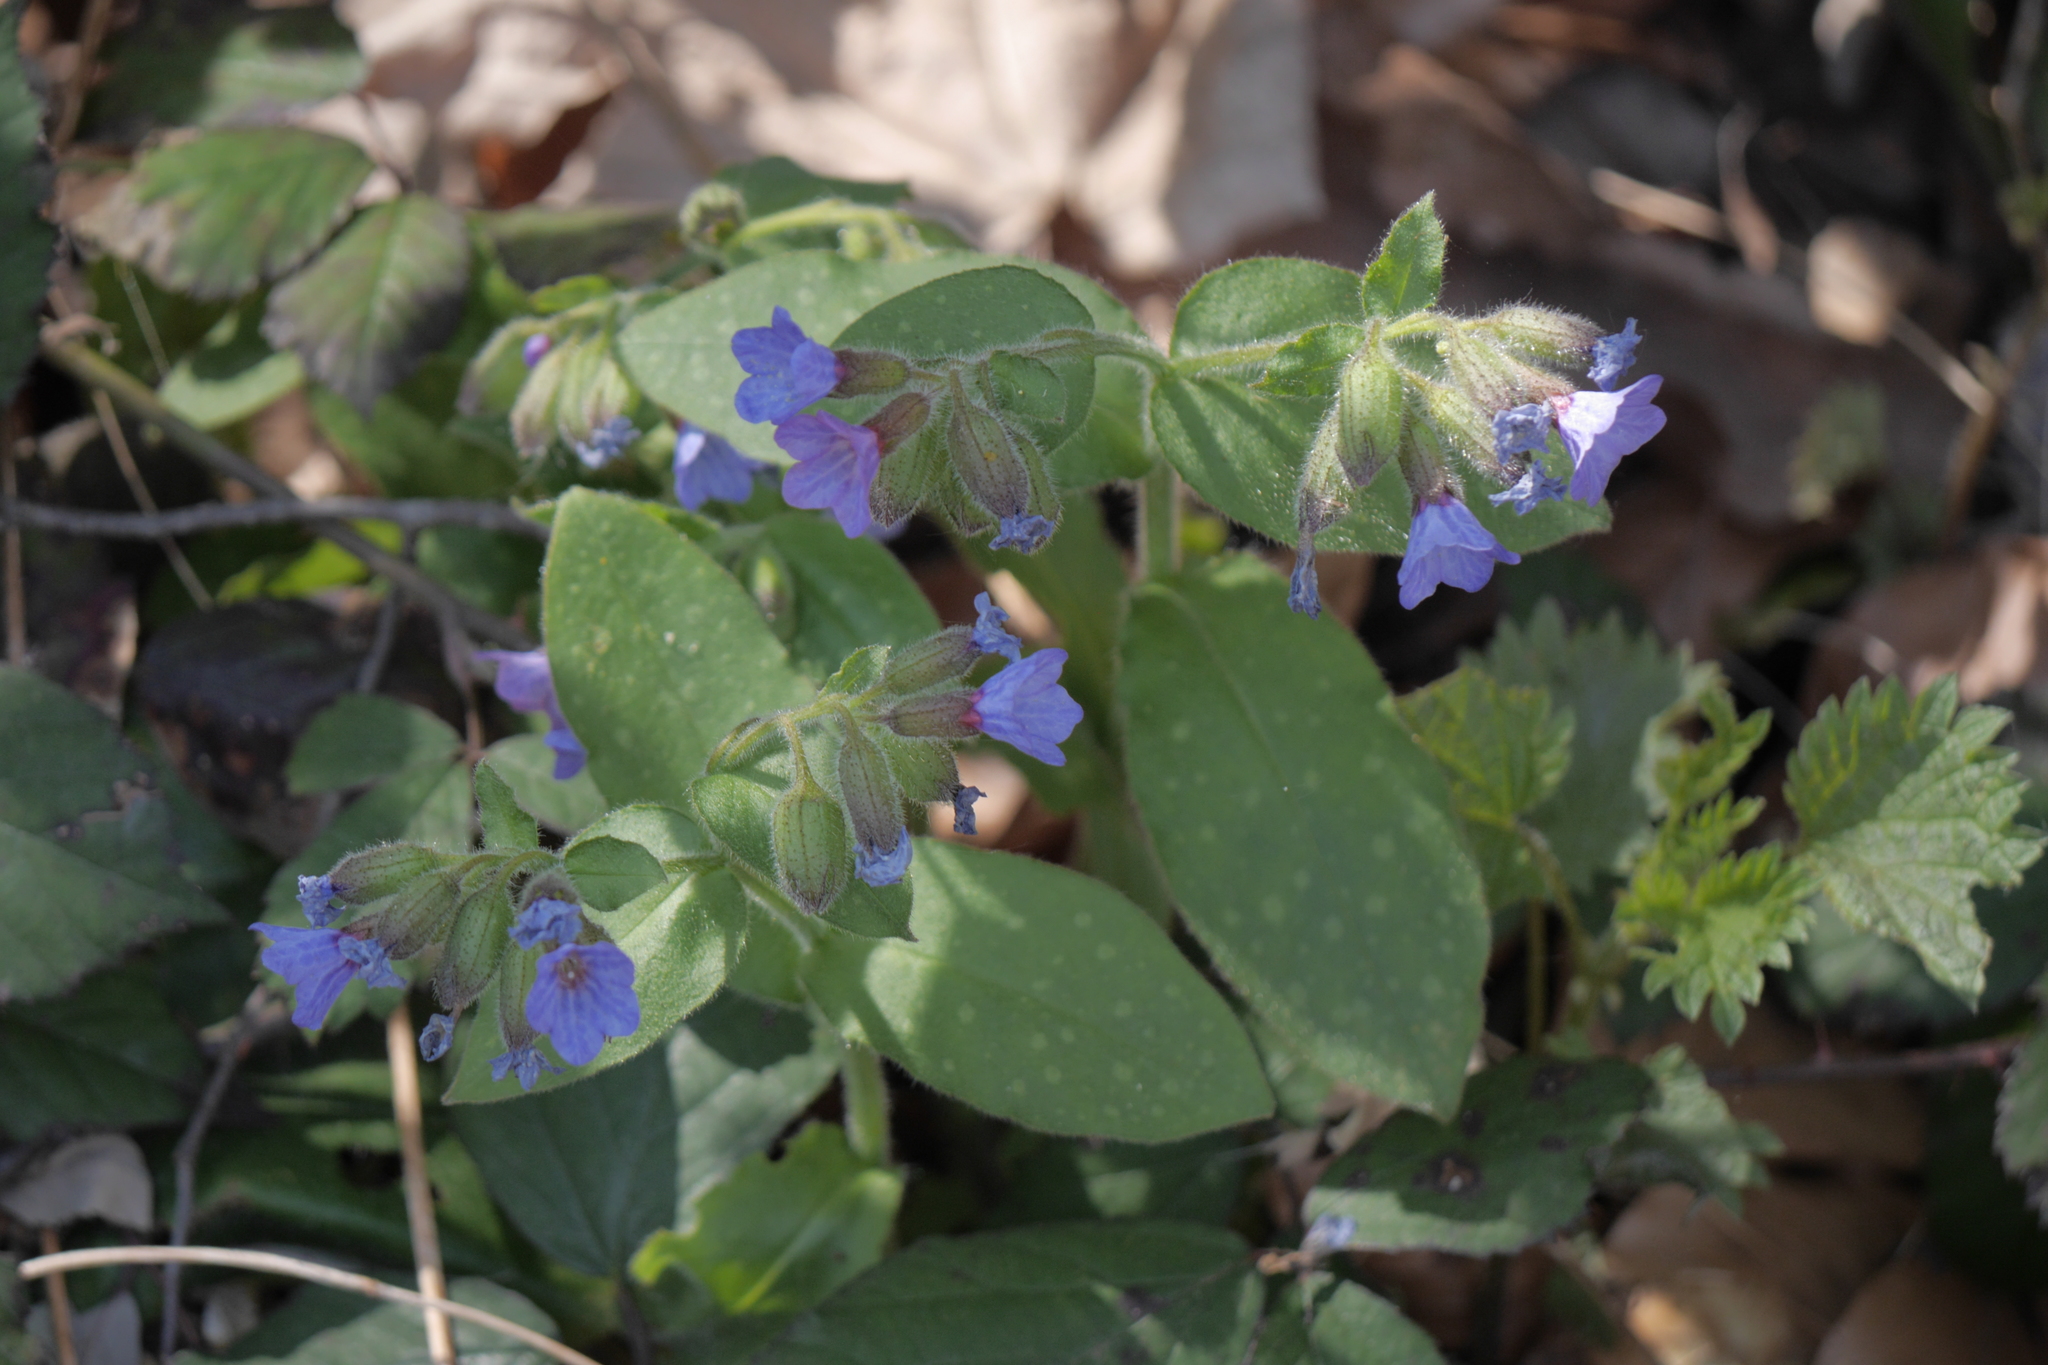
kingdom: Plantae
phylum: Tracheophyta
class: Magnoliopsida
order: Boraginales
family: Boraginaceae
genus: Pulmonaria
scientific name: Pulmonaria officinalis
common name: Lungwort
